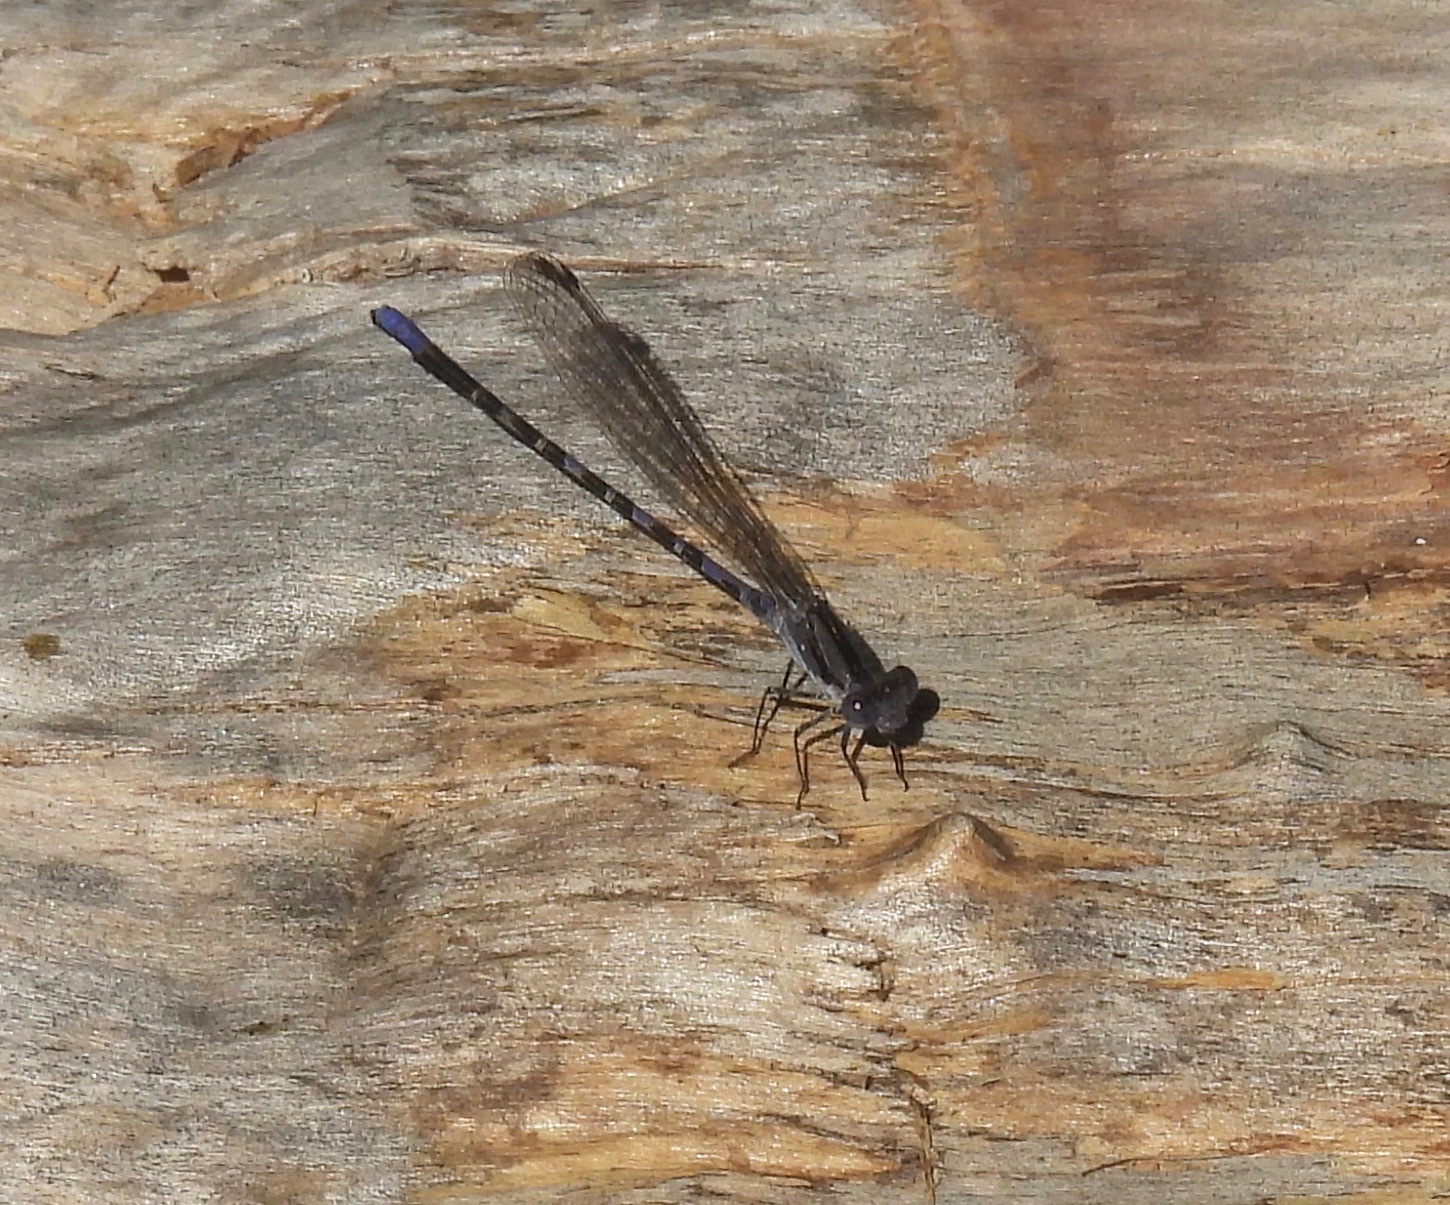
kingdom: Animalia
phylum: Arthropoda
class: Insecta
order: Odonata
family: Coenagrionidae
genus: Argia
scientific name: Argia immunda
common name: Kiowa dancer
